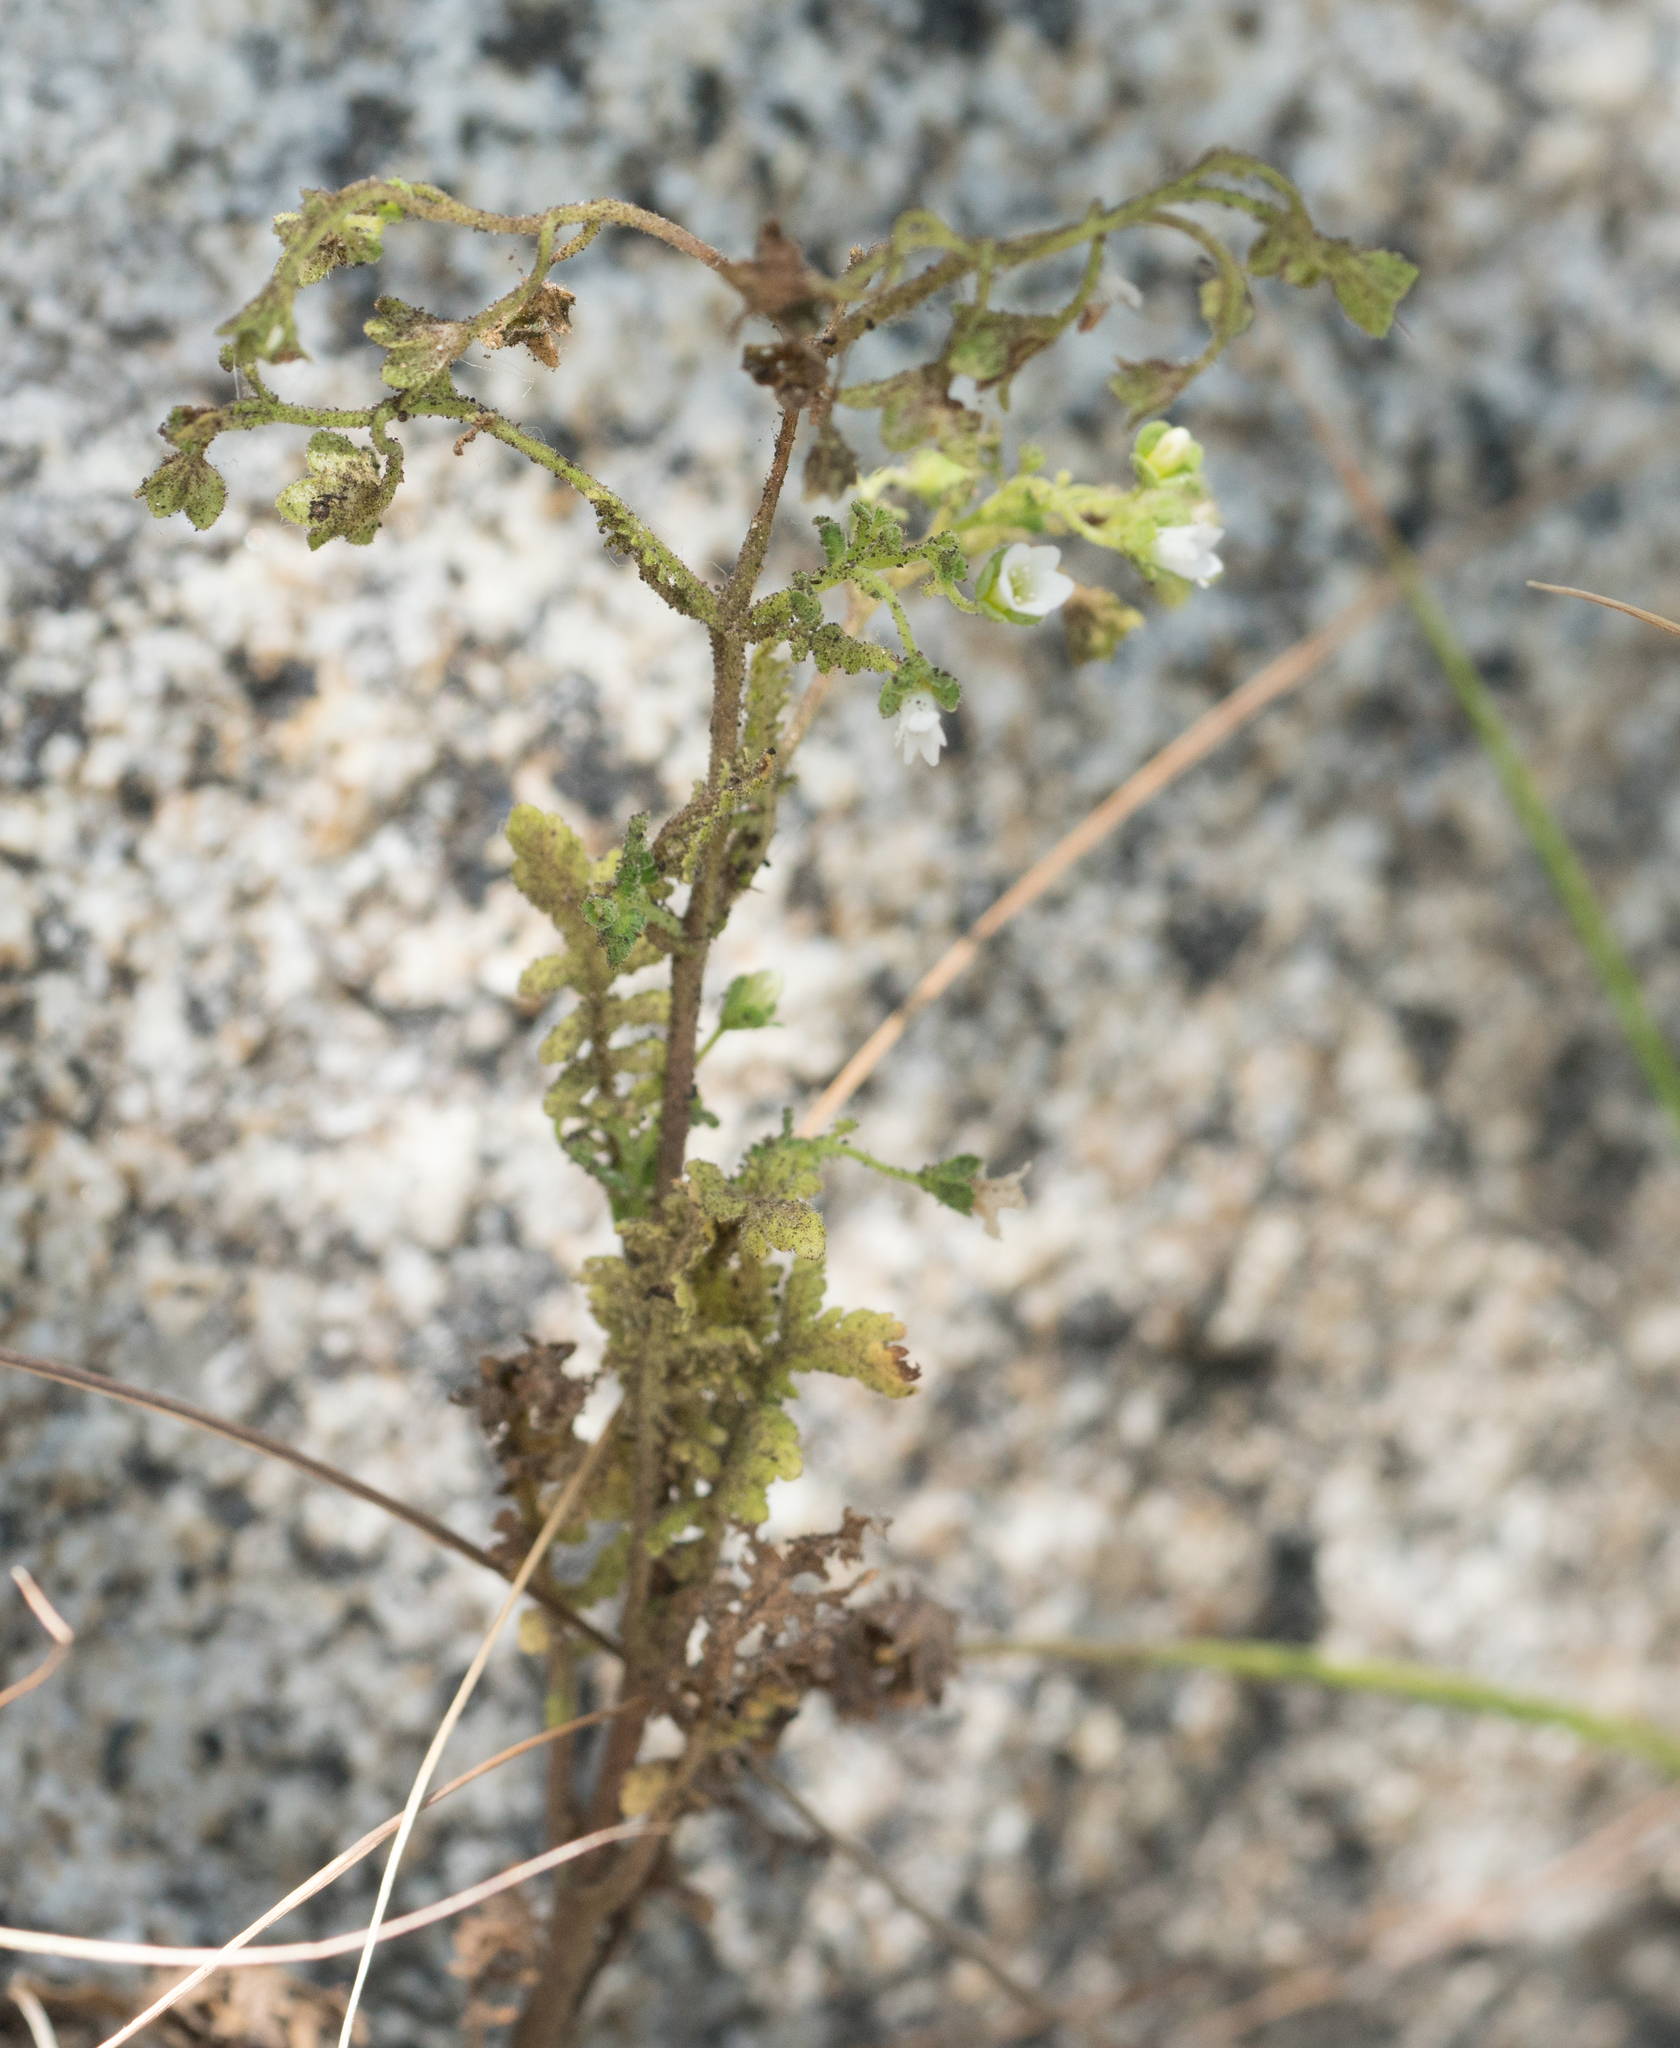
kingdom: Plantae
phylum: Tracheophyta
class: Magnoliopsida
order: Boraginales
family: Hydrophyllaceae
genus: Emmenanthe
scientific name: Emmenanthe penduliflora
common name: Whispering-bells
